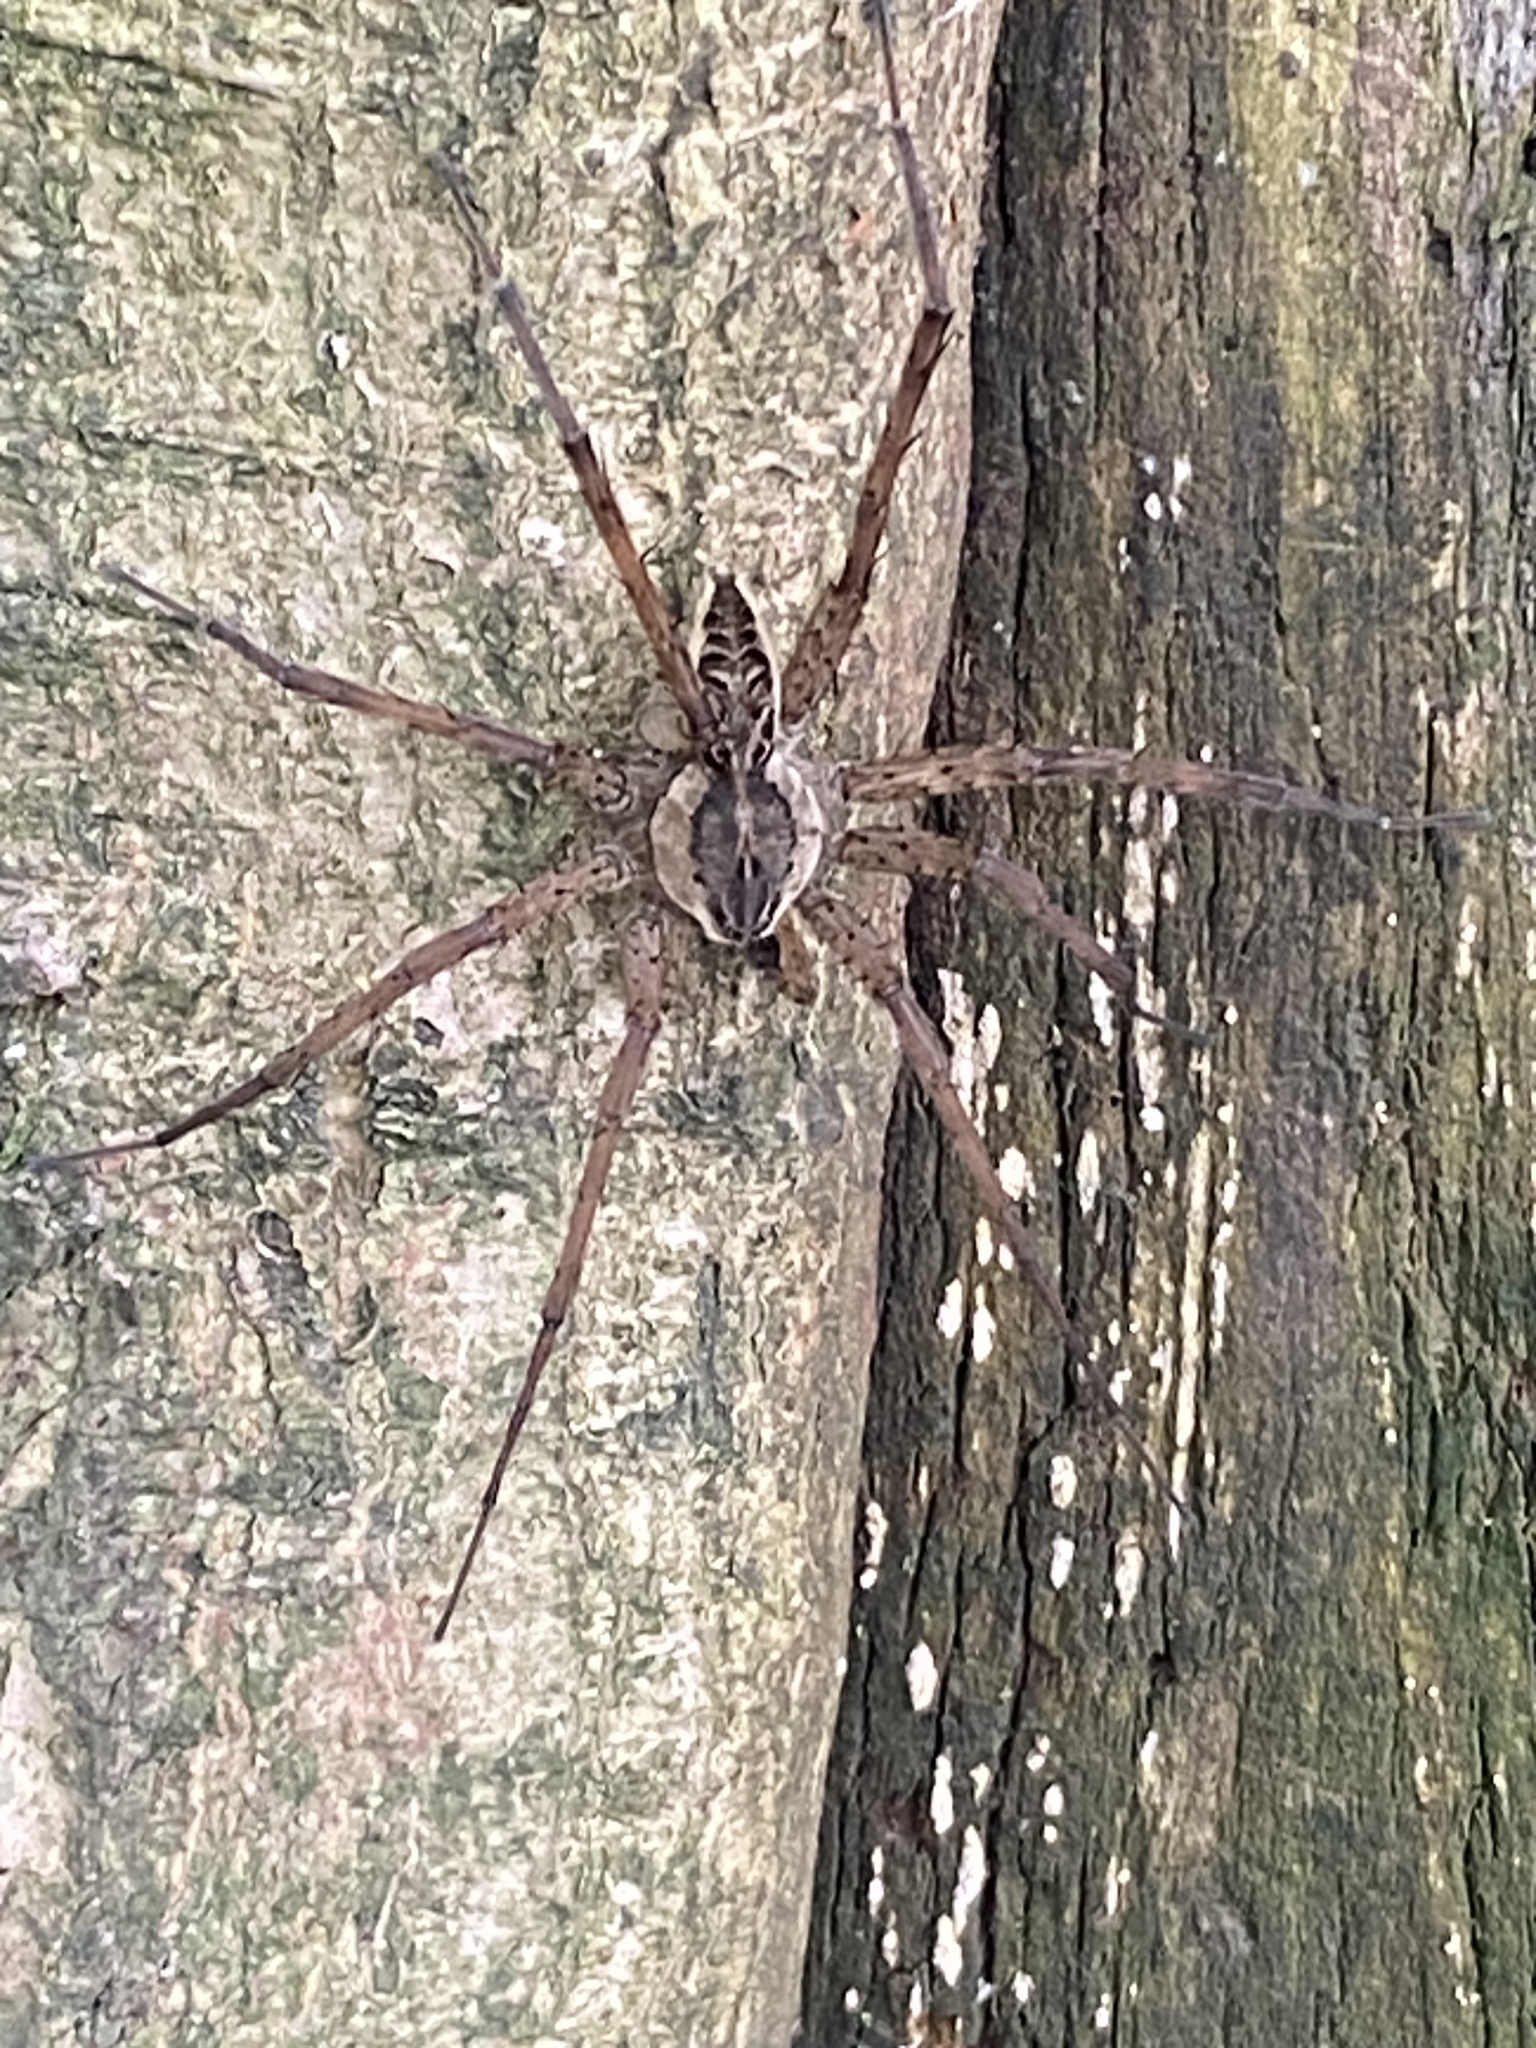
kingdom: Animalia
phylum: Arthropoda
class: Arachnida
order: Araneae
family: Pisauridae
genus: Dolomedes
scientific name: Dolomedes scriptus
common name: Striped fishing spider
